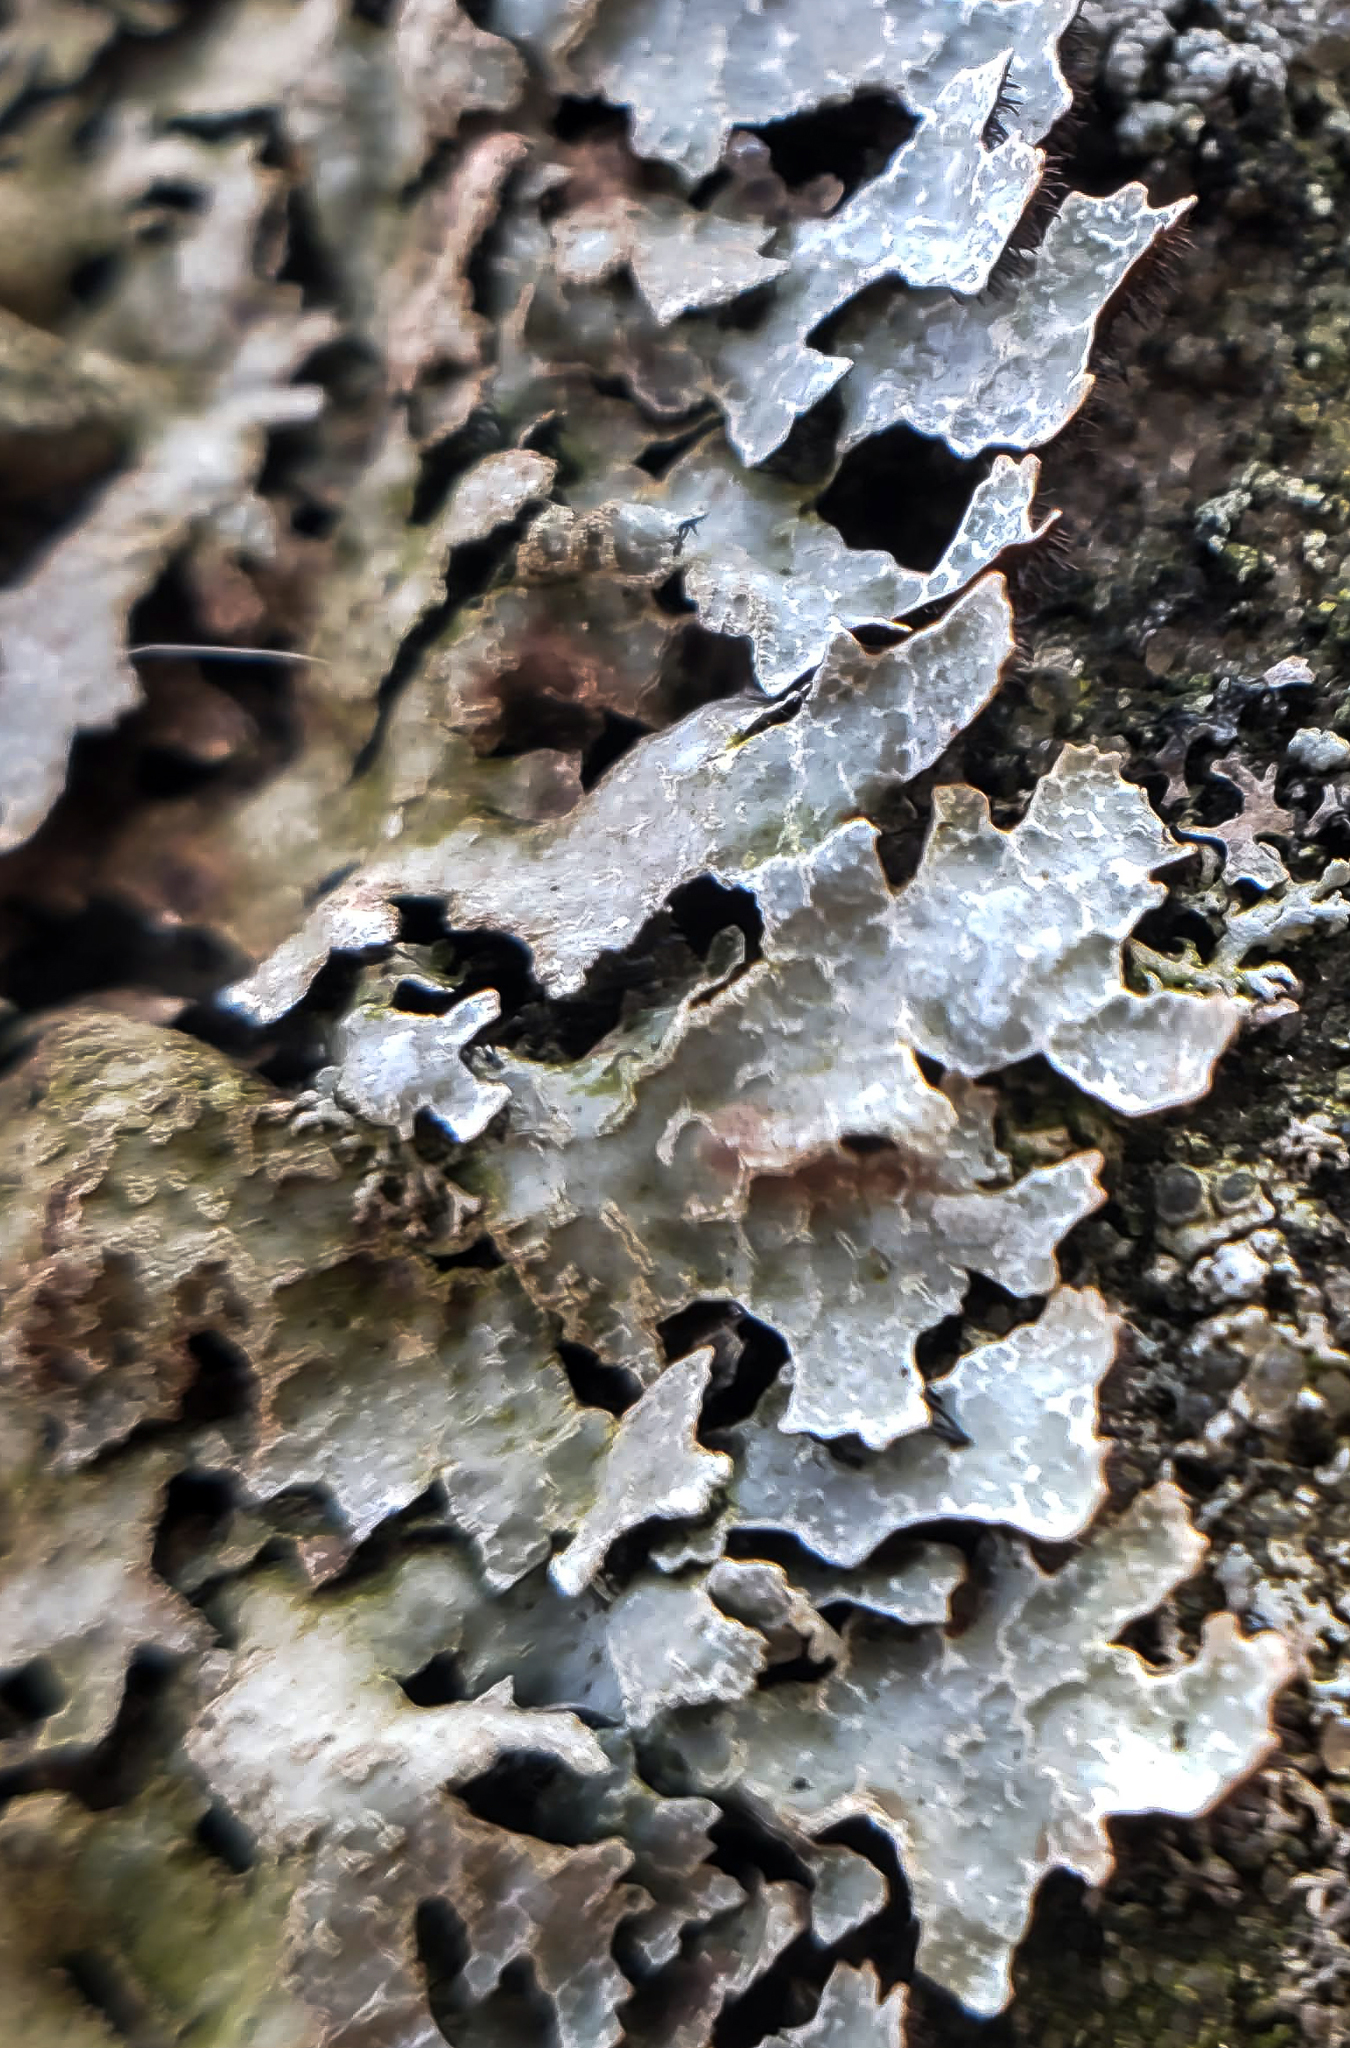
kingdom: Fungi
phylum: Ascomycota
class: Lecanoromycetes
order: Lecanorales
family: Parmeliaceae
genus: Parmelia
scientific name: Parmelia sulcata
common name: Netted shield lichen
